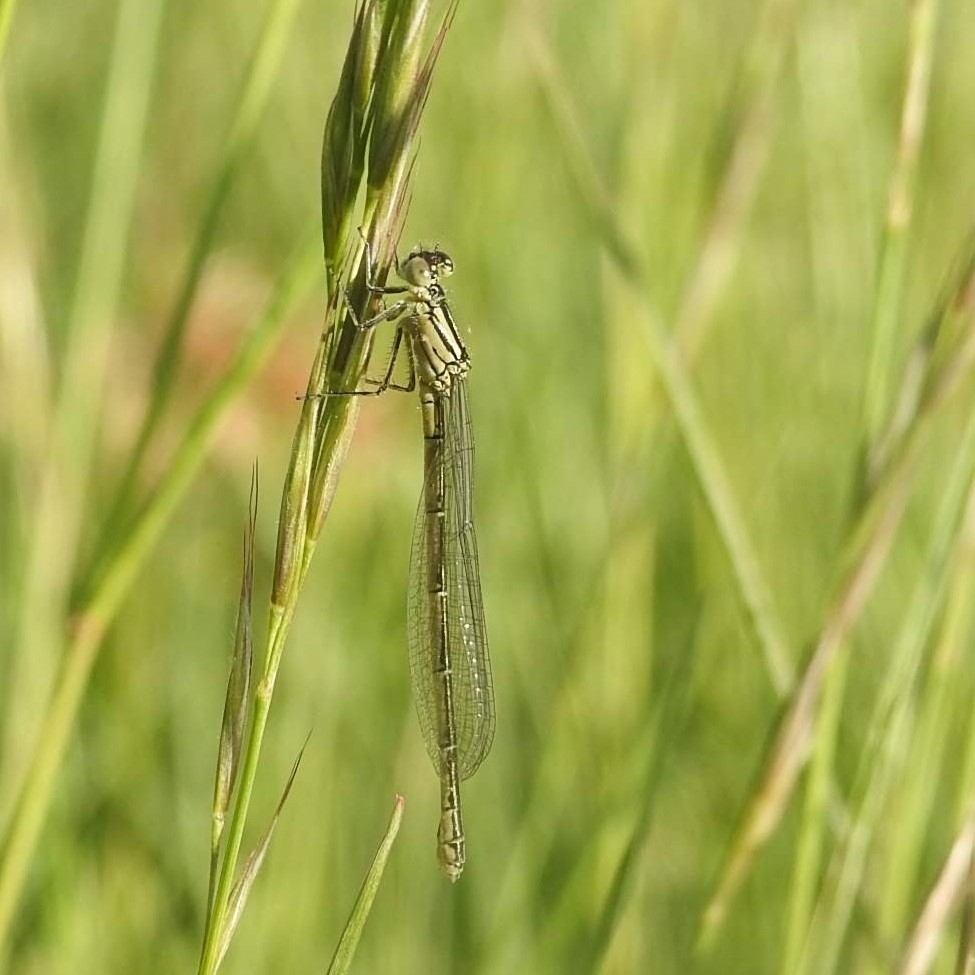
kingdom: Animalia
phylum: Arthropoda
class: Insecta
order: Odonata
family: Coenagrionidae
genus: Erythromma
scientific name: Erythromma lindenii
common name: Blue-eye
